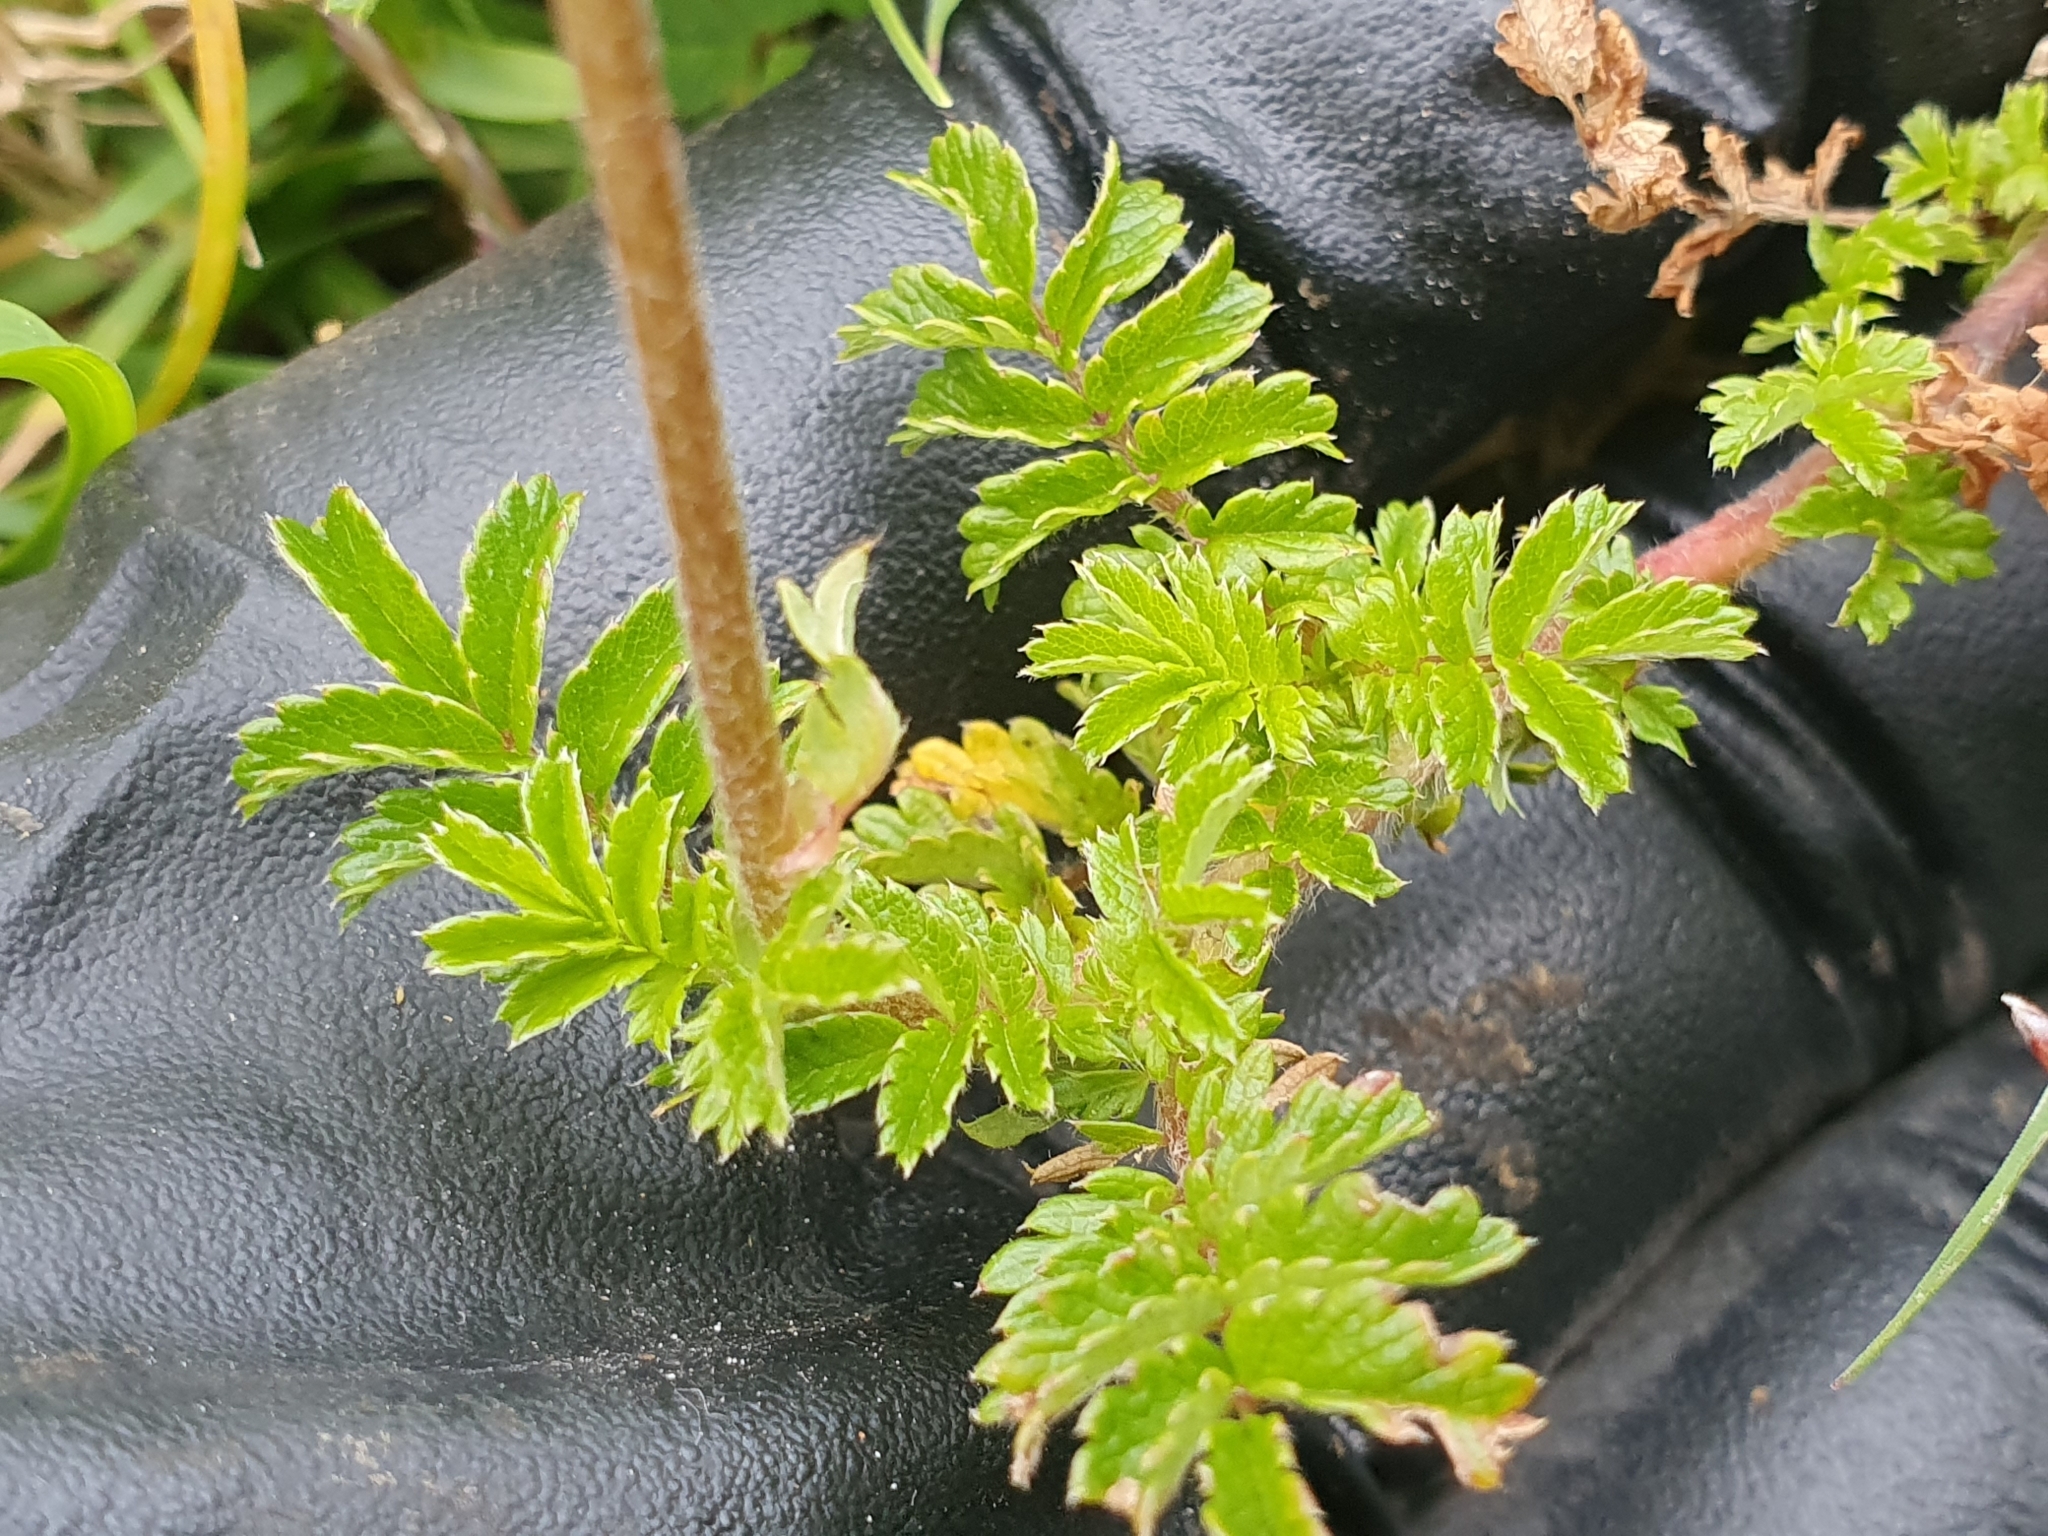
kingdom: Plantae
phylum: Tracheophyta
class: Magnoliopsida
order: Rosales
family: Rosaceae
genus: Acaena
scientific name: Acaena novae-zelandiae
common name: Pirri-pirri-bur
